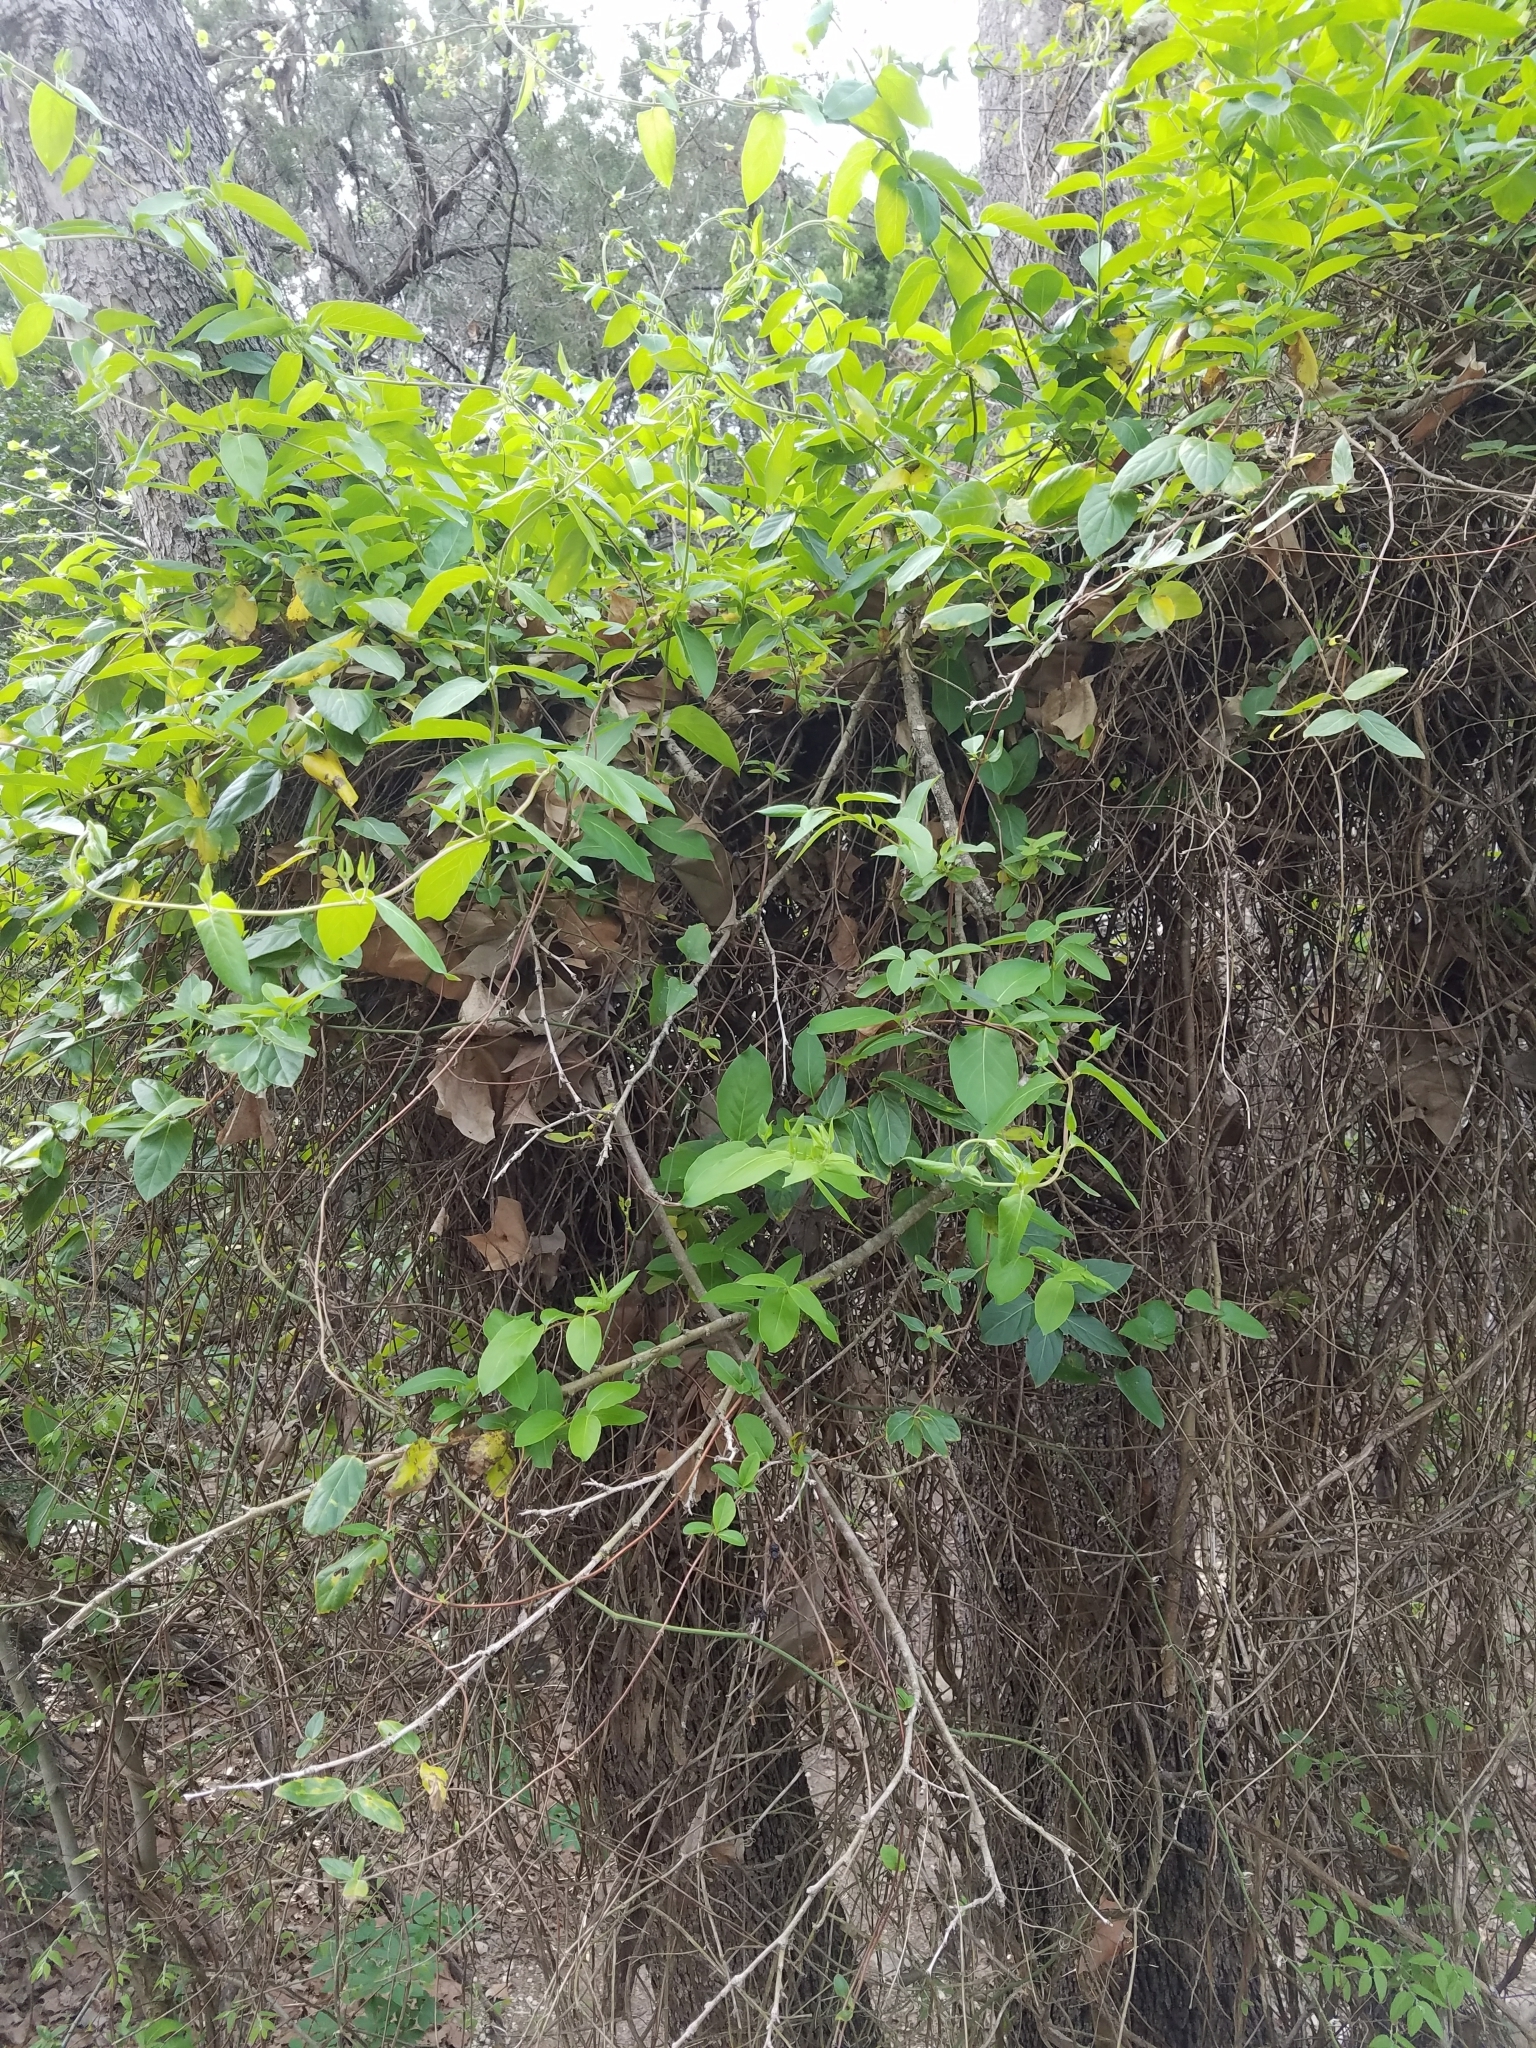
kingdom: Plantae
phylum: Tracheophyta
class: Magnoliopsida
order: Dipsacales
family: Caprifoliaceae
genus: Lonicera
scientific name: Lonicera japonica
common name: Japanese honeysuckle
